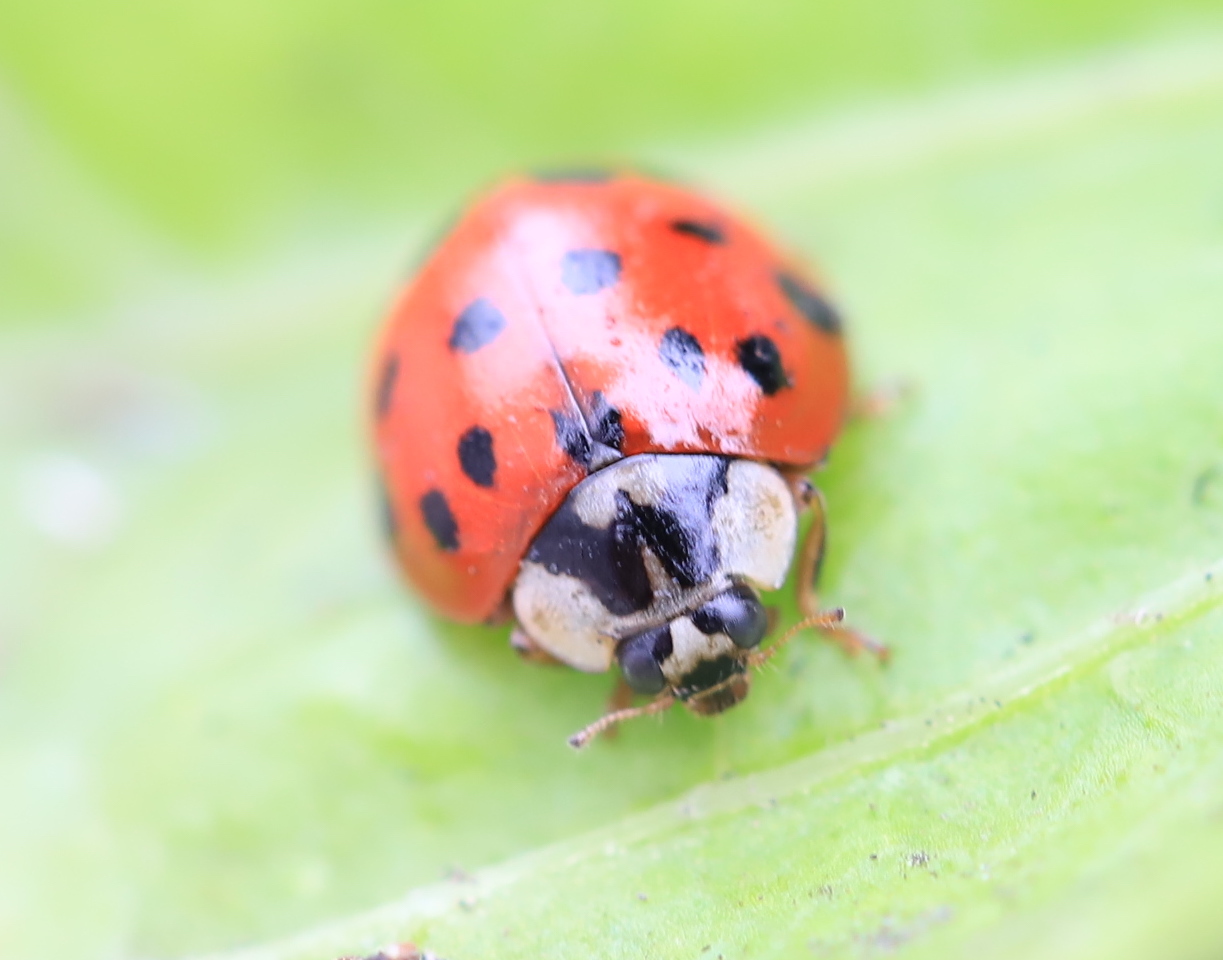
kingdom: Animalia
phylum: Arthropoda
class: Insecta
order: Coleoptera
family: Coccinellidae
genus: Harmonia
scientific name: Harmonia axyridis
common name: Harlequin ladybird
